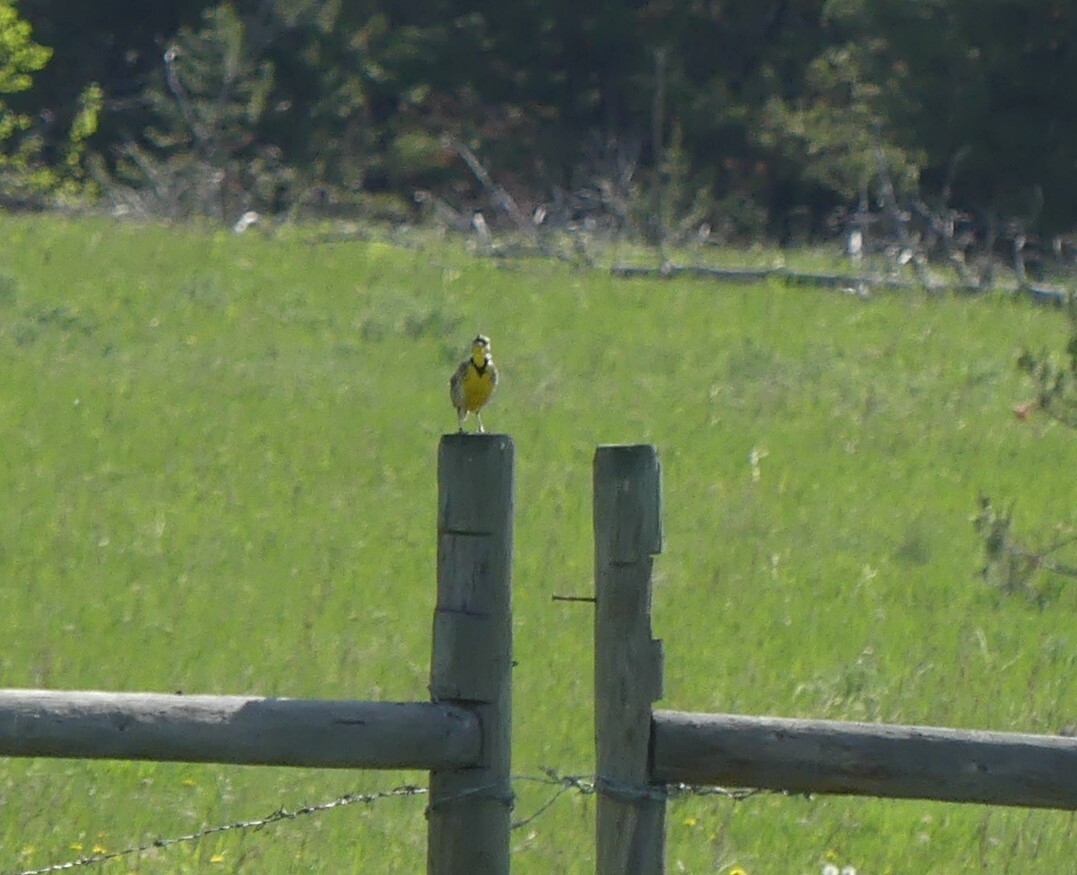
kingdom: Animalia
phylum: Chordata
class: Aves
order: Passeriformes
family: Icteridae
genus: Sturnella
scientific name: Sturnella neglecta
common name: Western meadowlark
